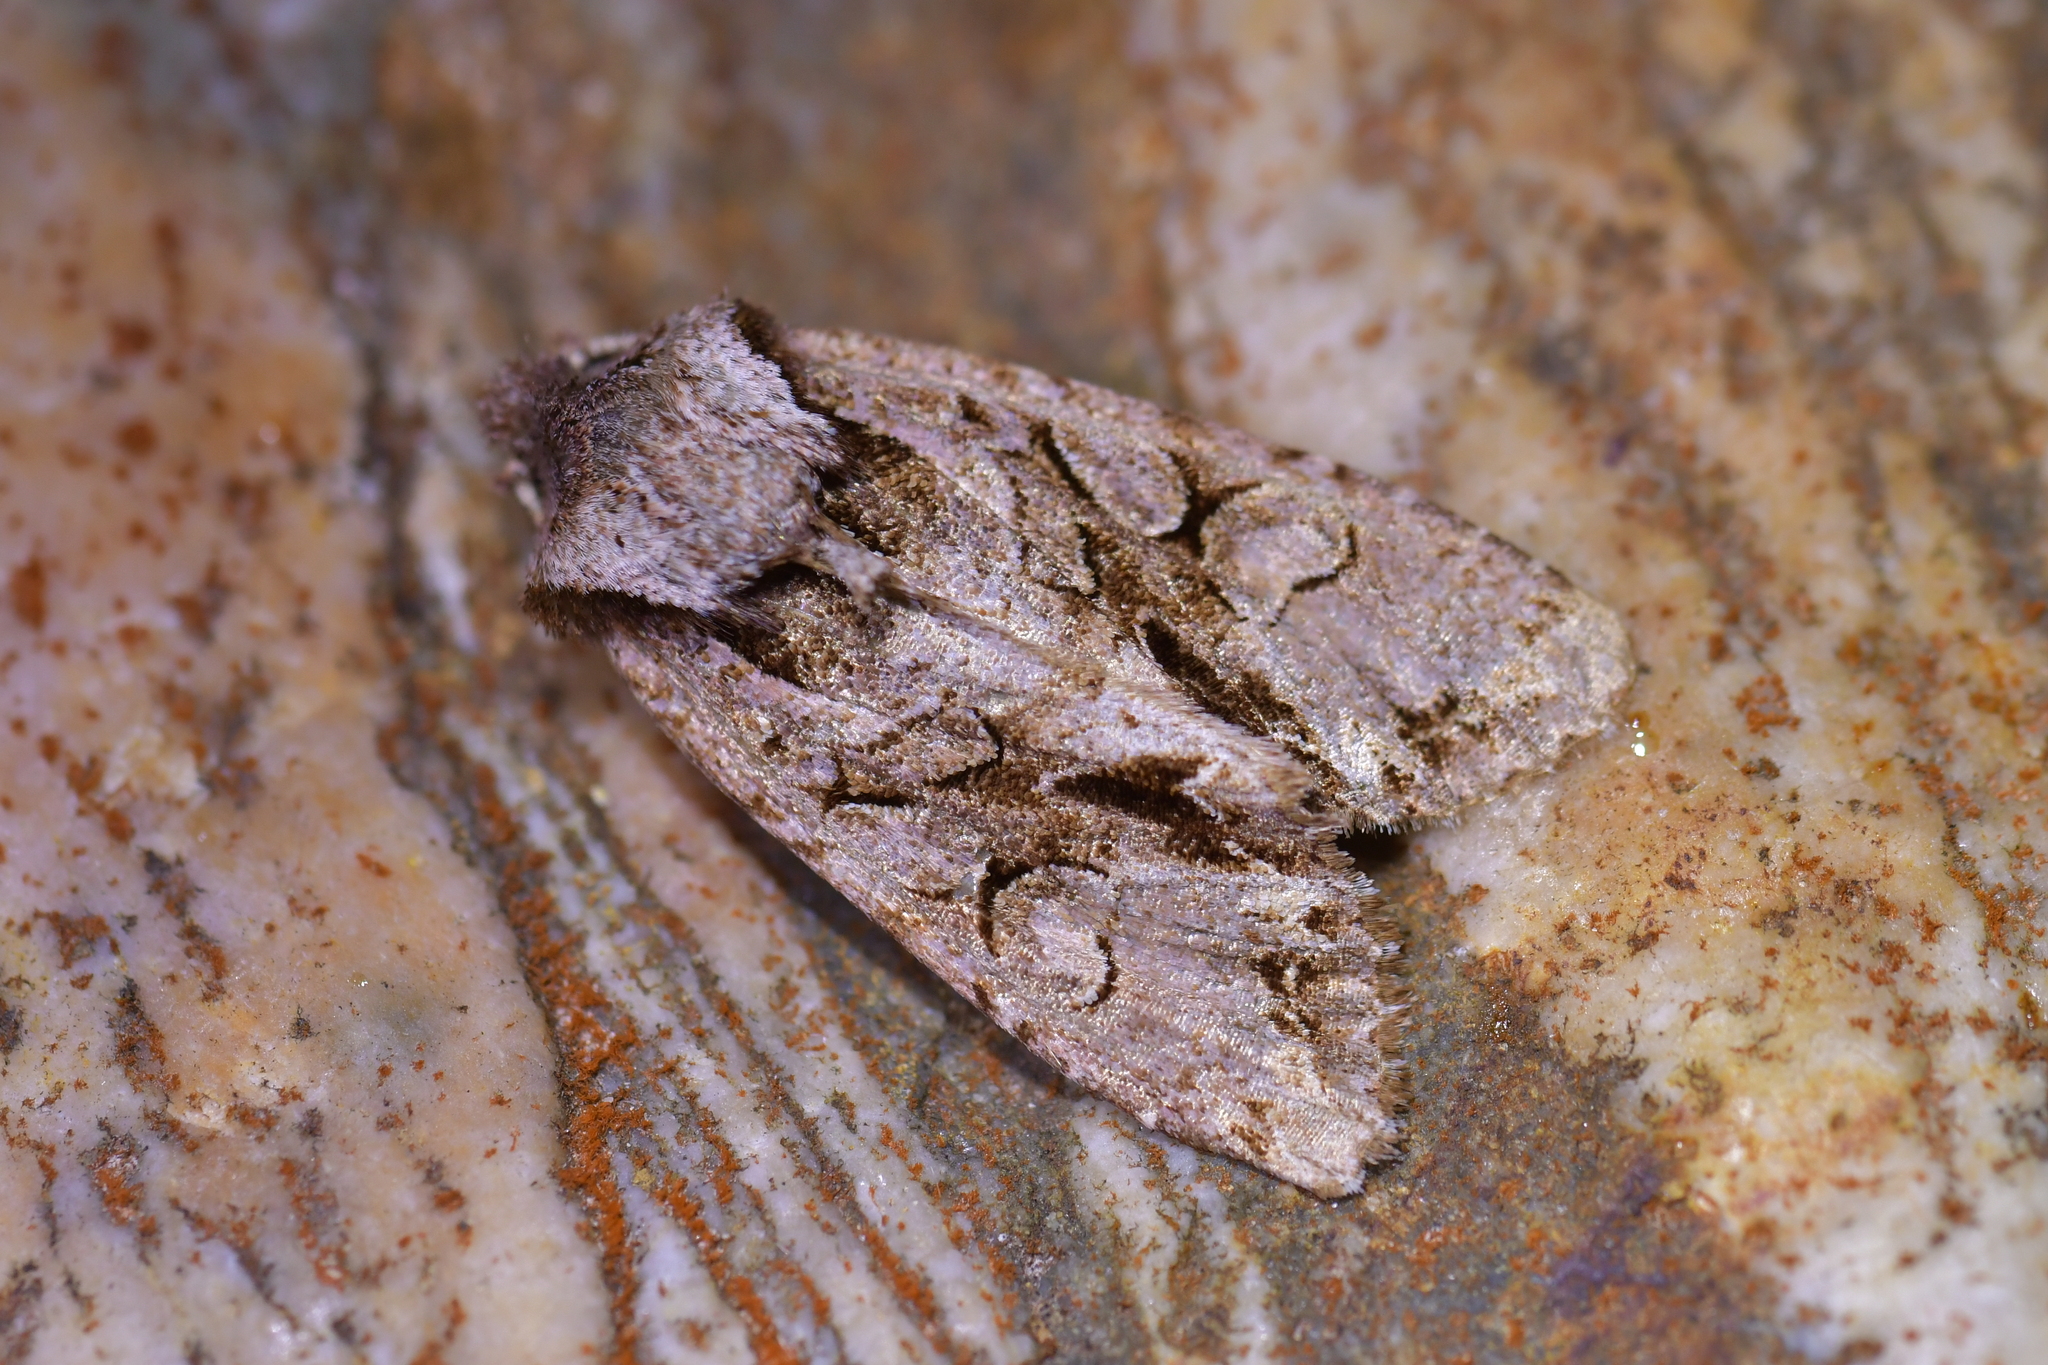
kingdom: Animalia
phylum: Arthropoda
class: Insecta
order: Lepidoptera
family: Noctuidae
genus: Ichneutica
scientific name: Ichneutica skelloni
